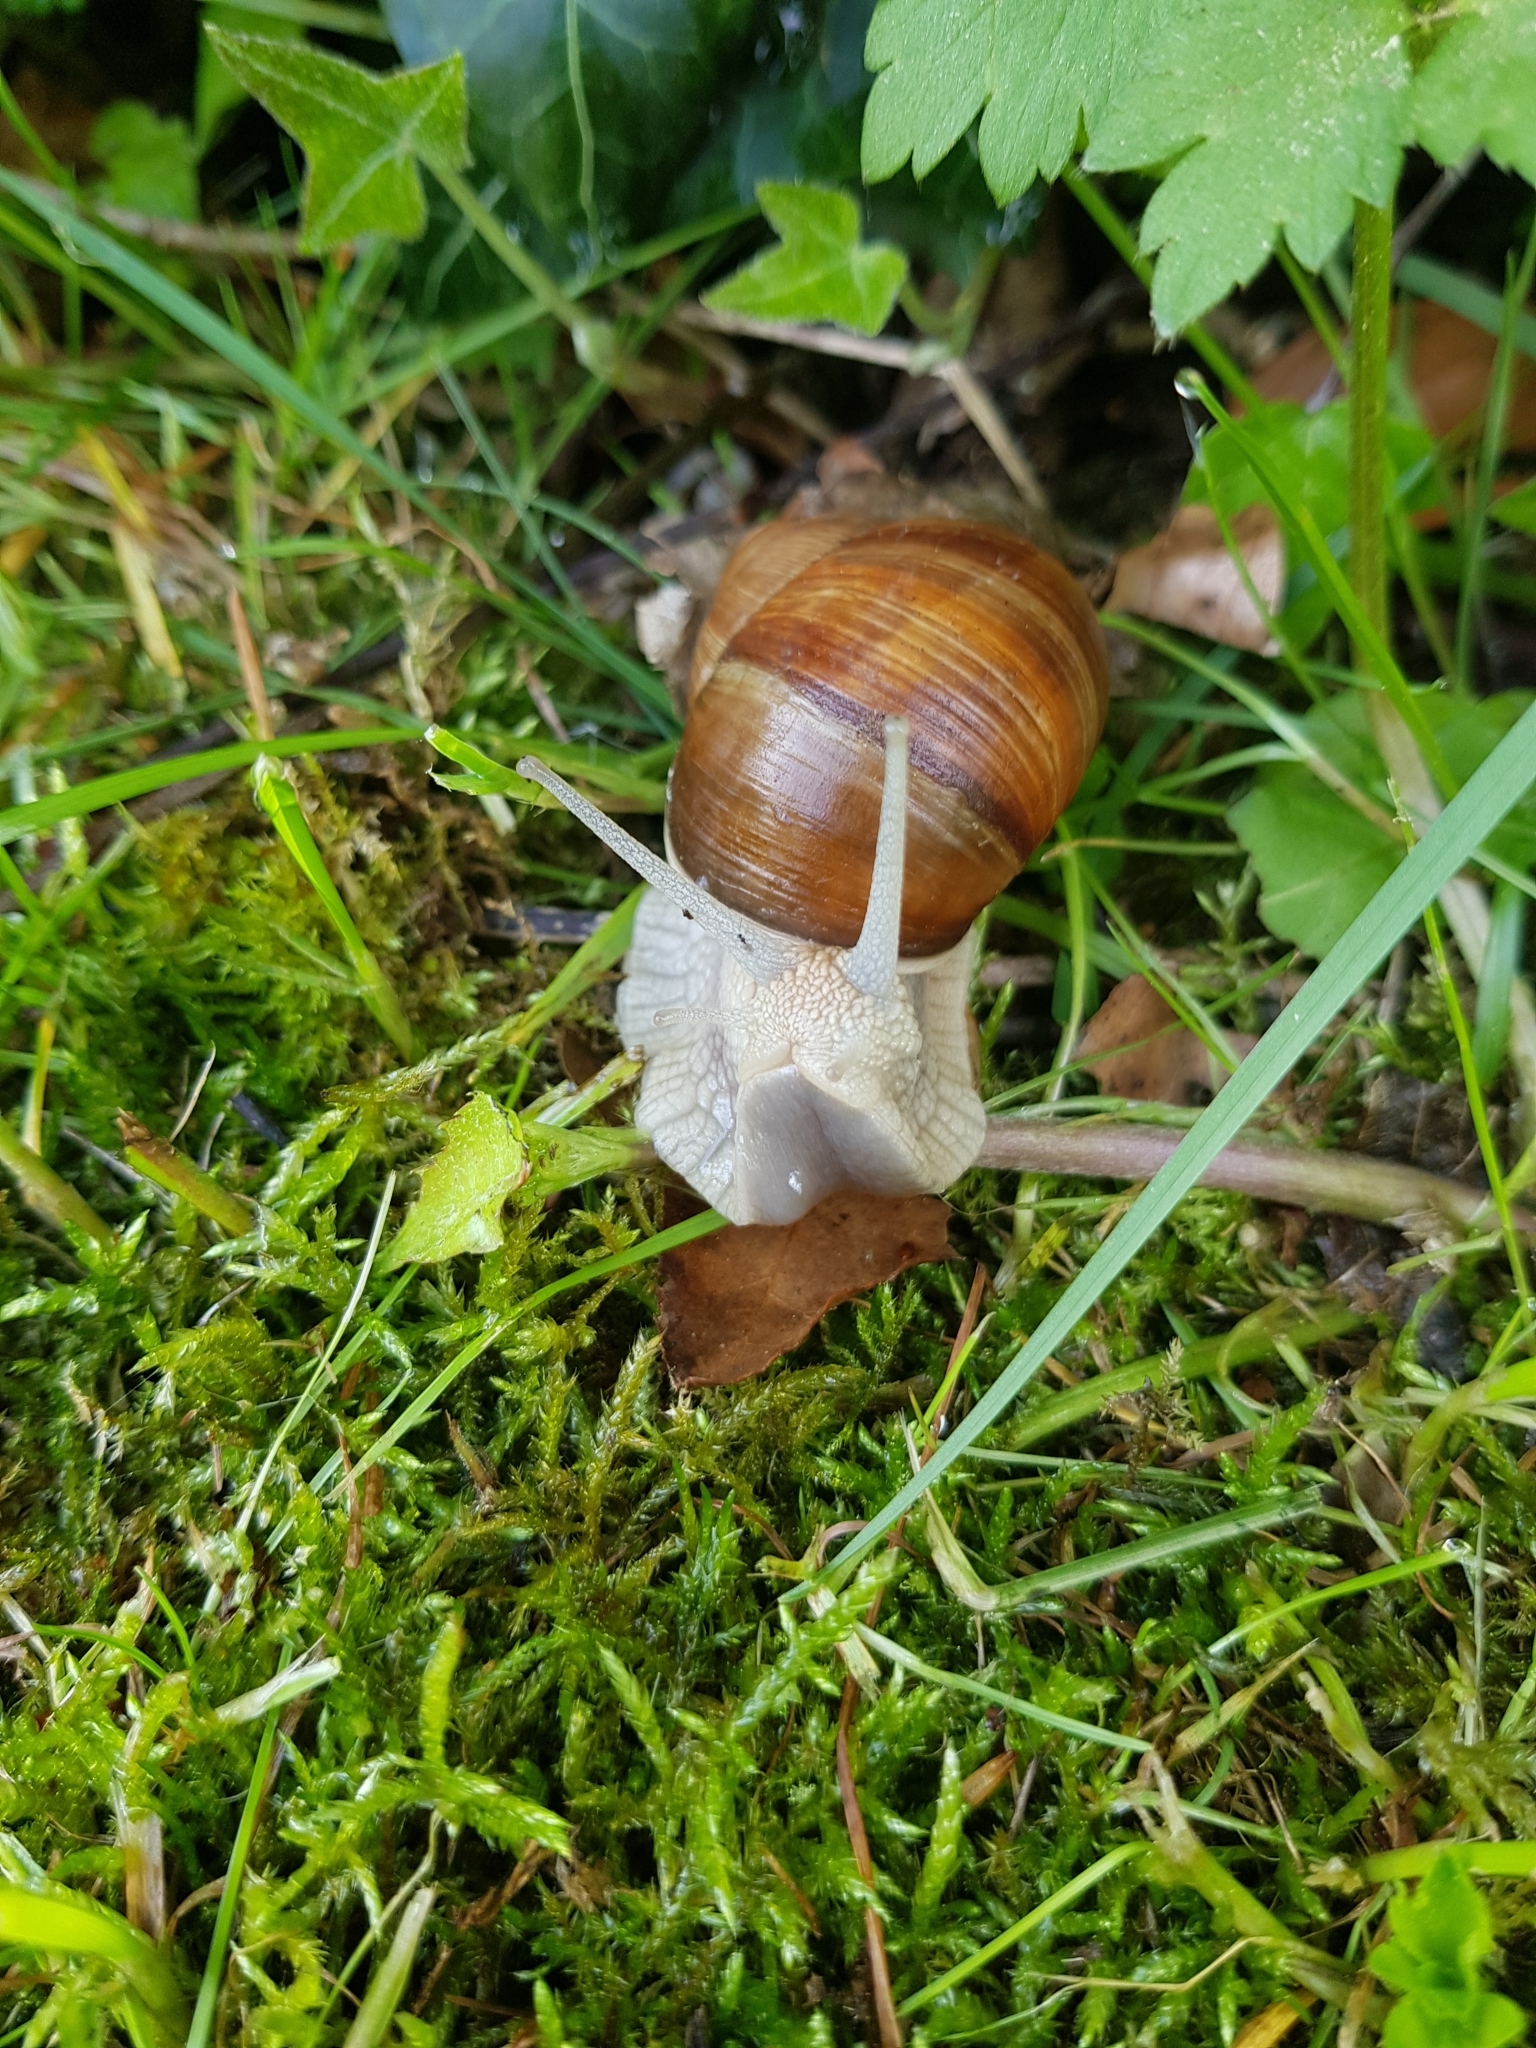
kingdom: Animalia
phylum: Mollusca
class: Gastropoda
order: Stylommatophora
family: Helicidae
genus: Helix
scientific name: Helix pomatia
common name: Roman snail
